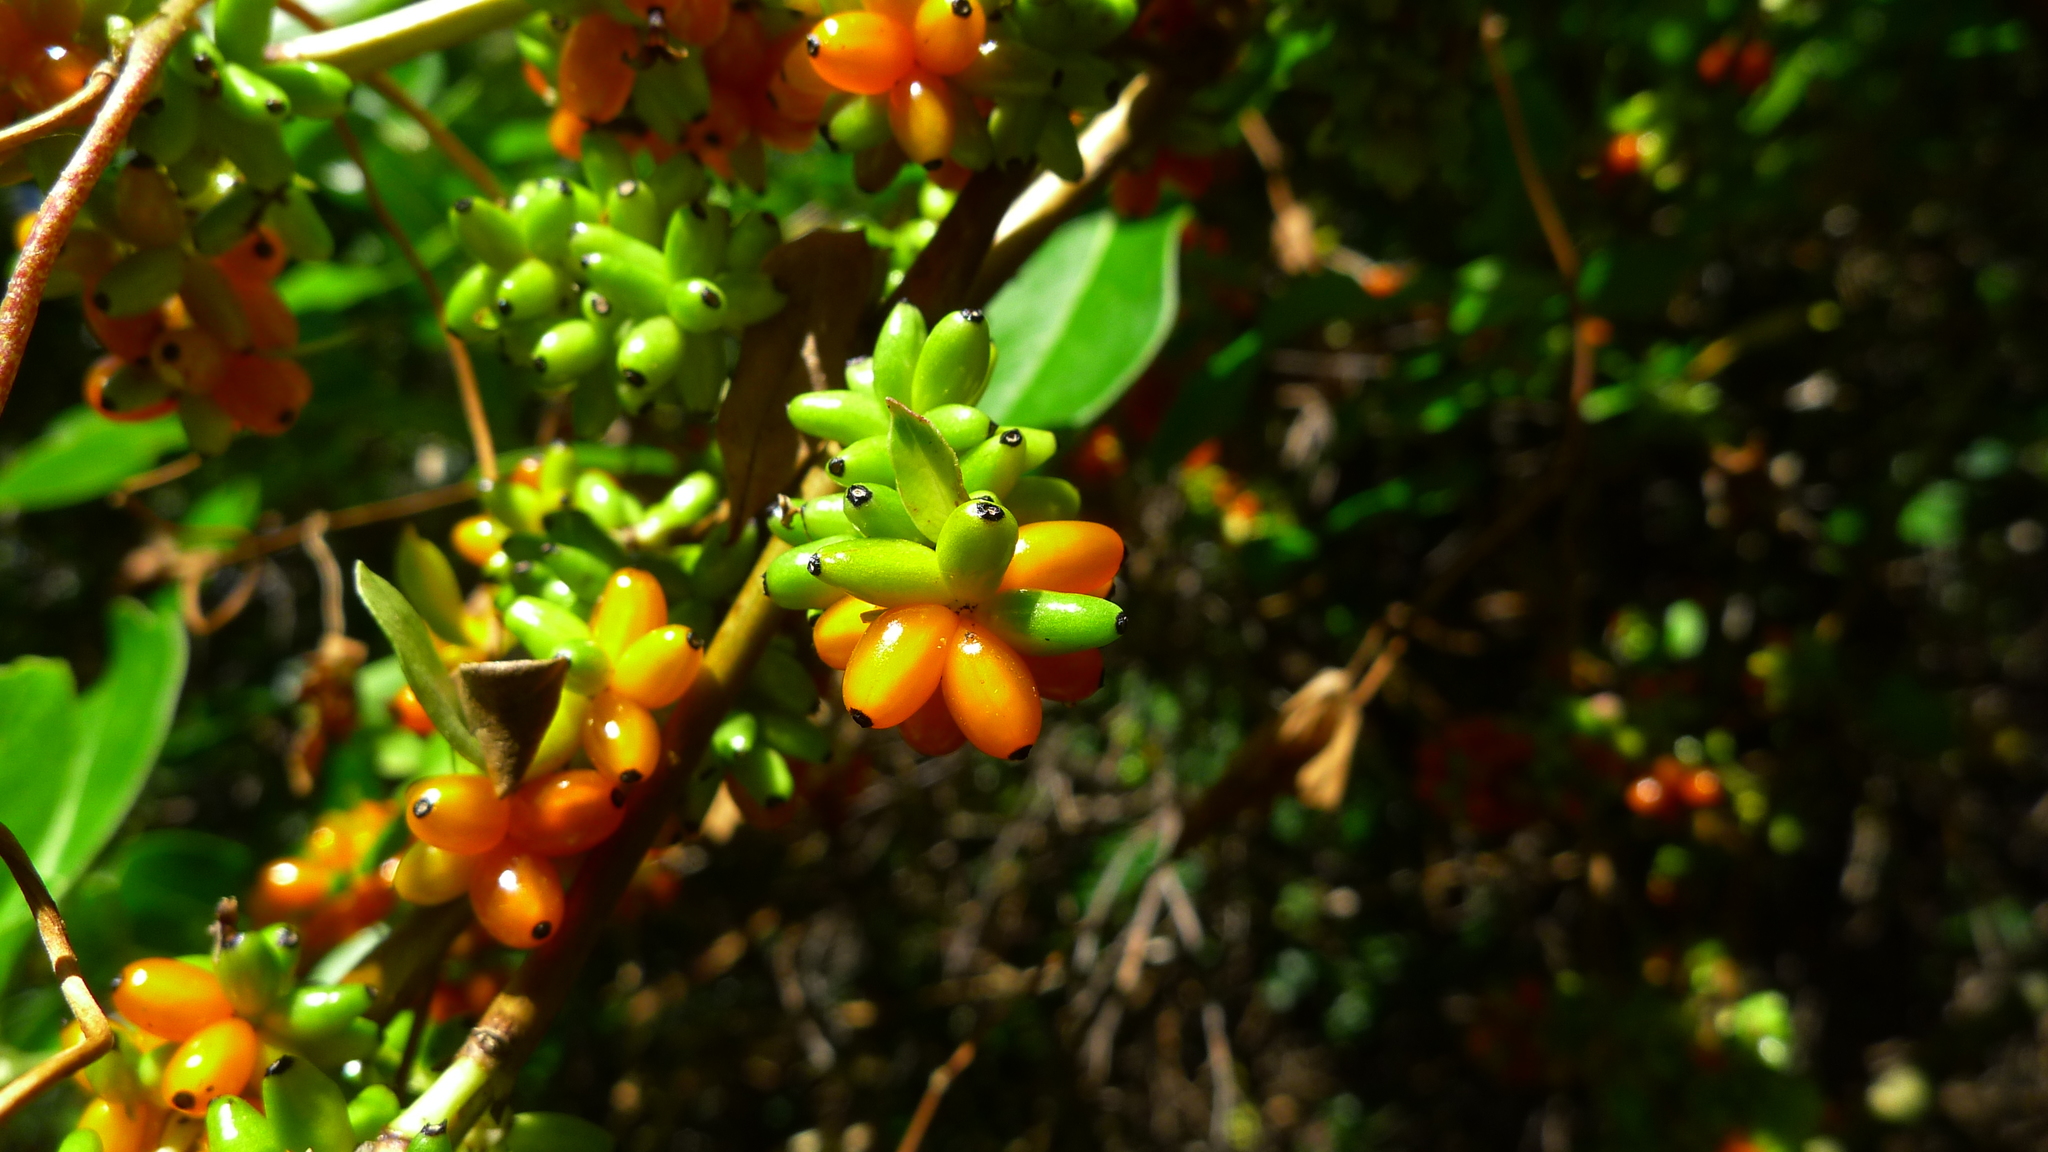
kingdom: Plantae
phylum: Tracheophyta
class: Magnoliopsida
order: Gentianales
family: Rubiaceae
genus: Coprosma
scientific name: Coprosma robusta
